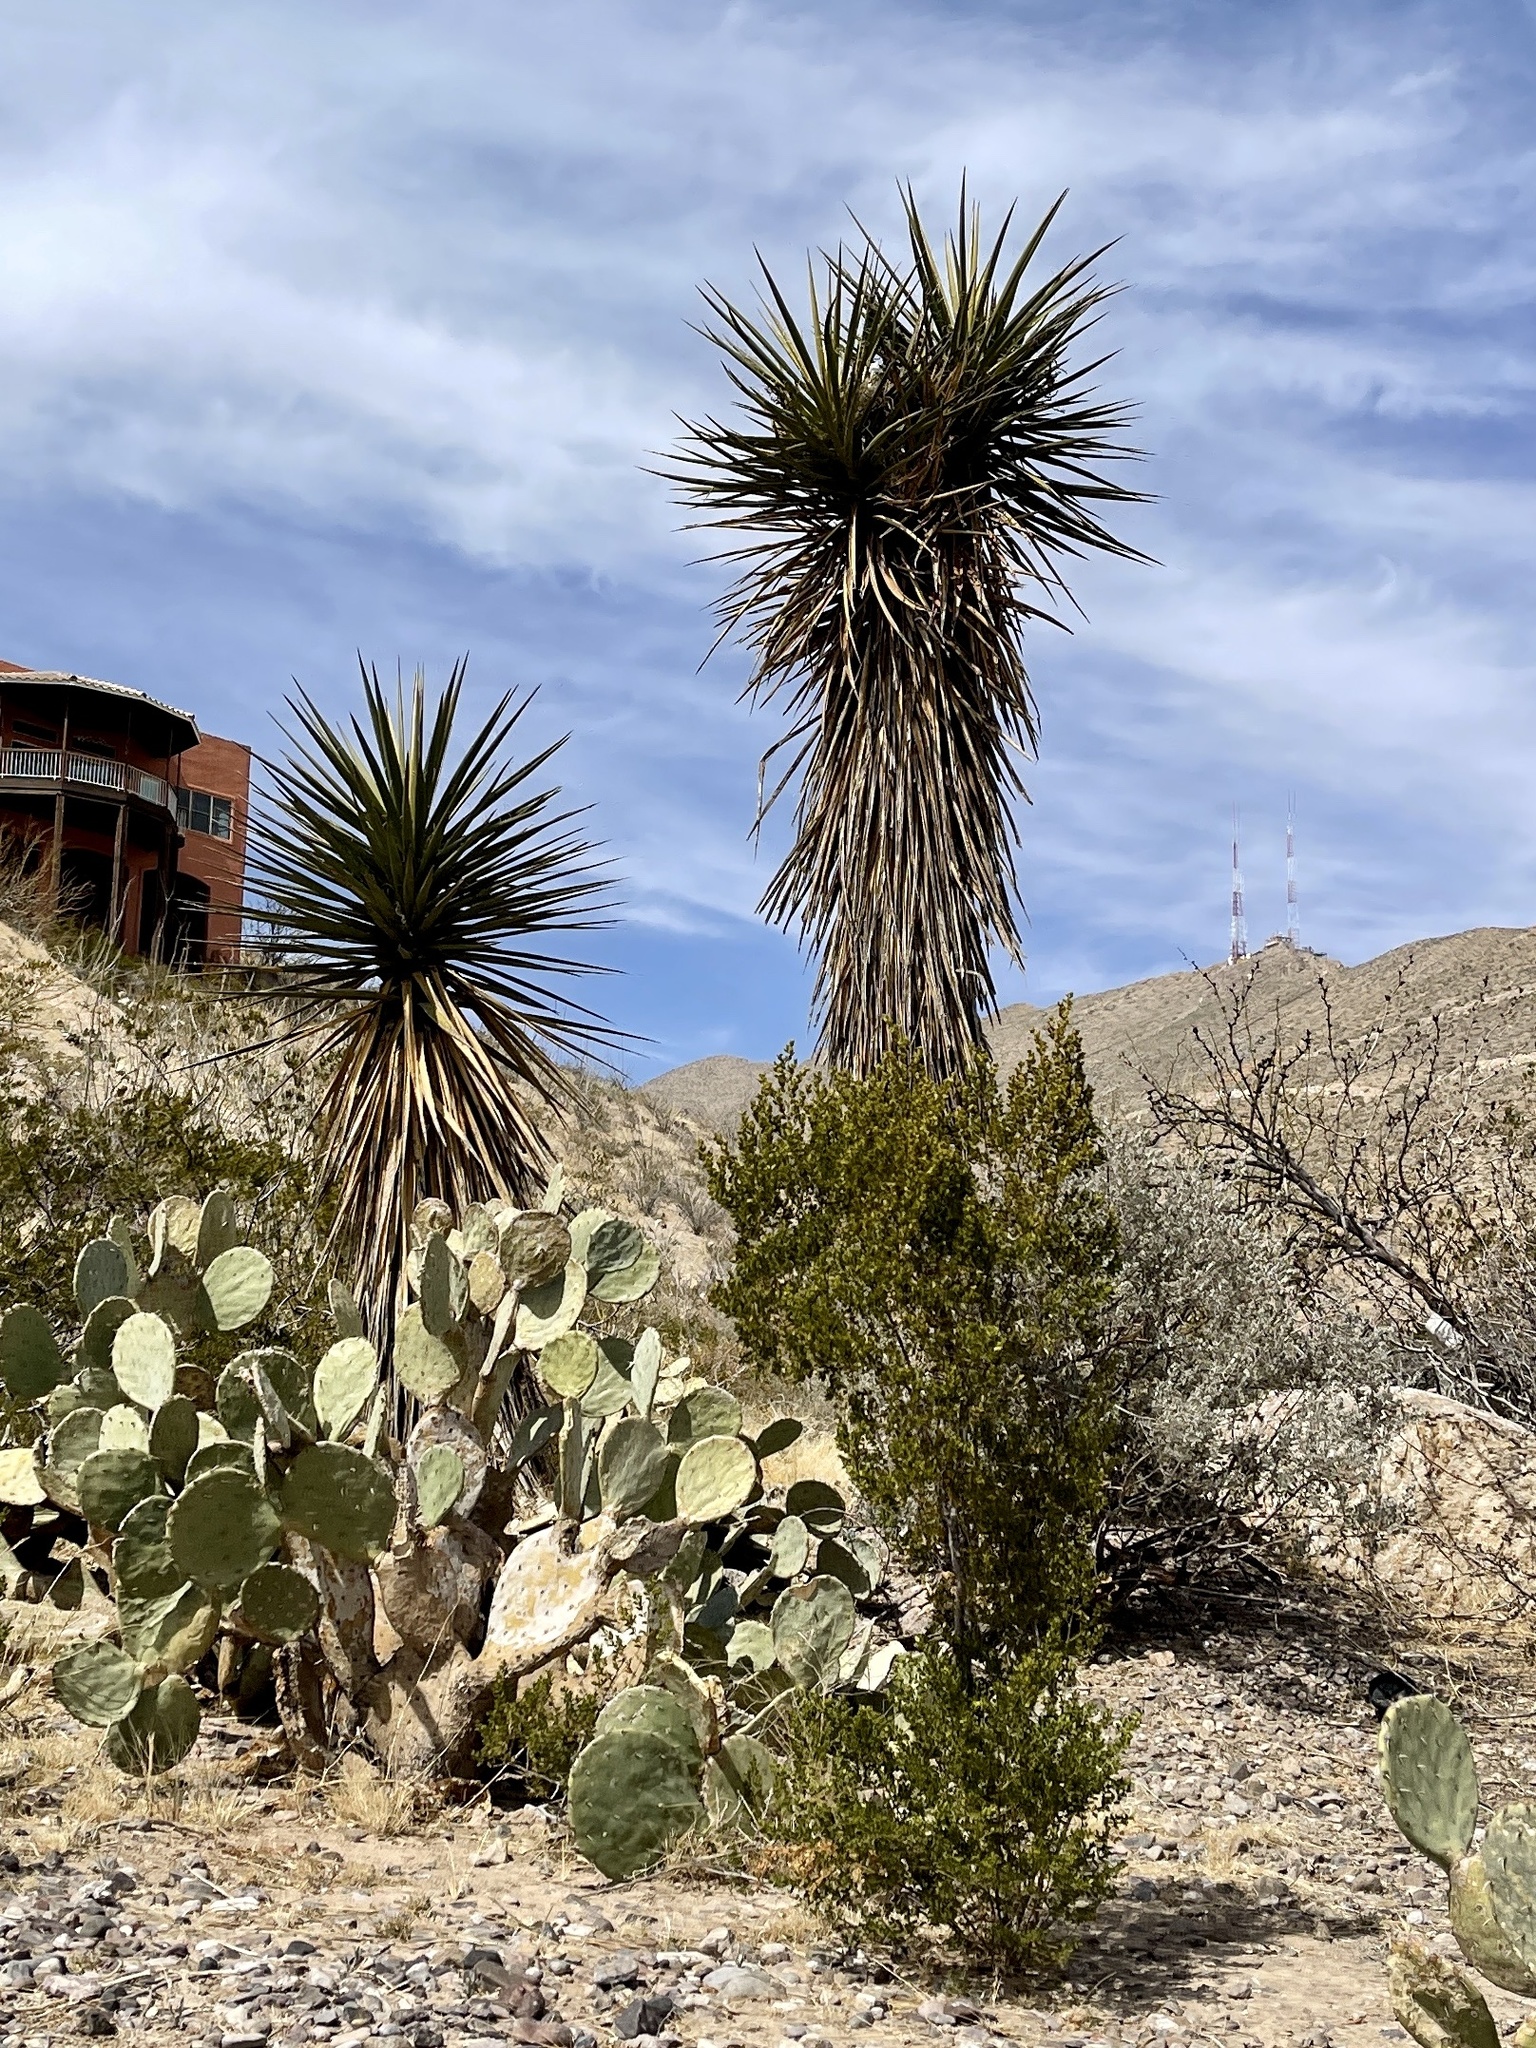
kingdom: Plantae
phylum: Tracheophyta
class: Liliopsida
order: Asparagales
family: Asparagaceae
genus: Yucca
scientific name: Yucca treculiana
